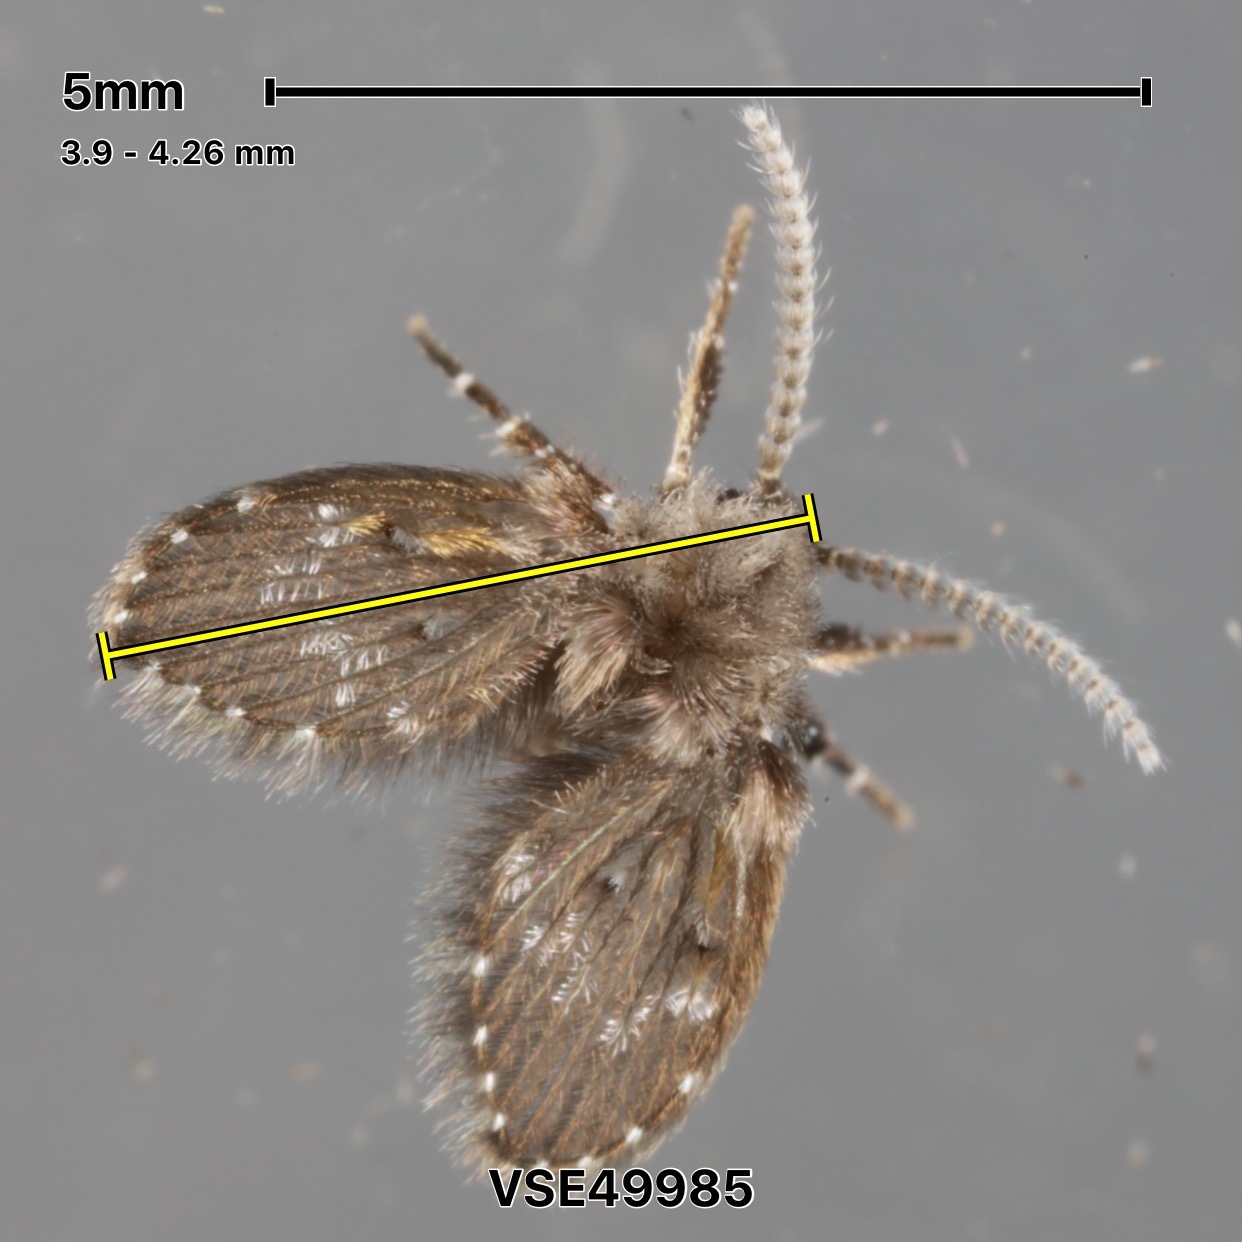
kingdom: Animalia
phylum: Arthropoda
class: Insecta
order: Diptera
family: Psychodidae
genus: Clogmia
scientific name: Clogmia albipunctatus
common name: White-spotted moth fly
